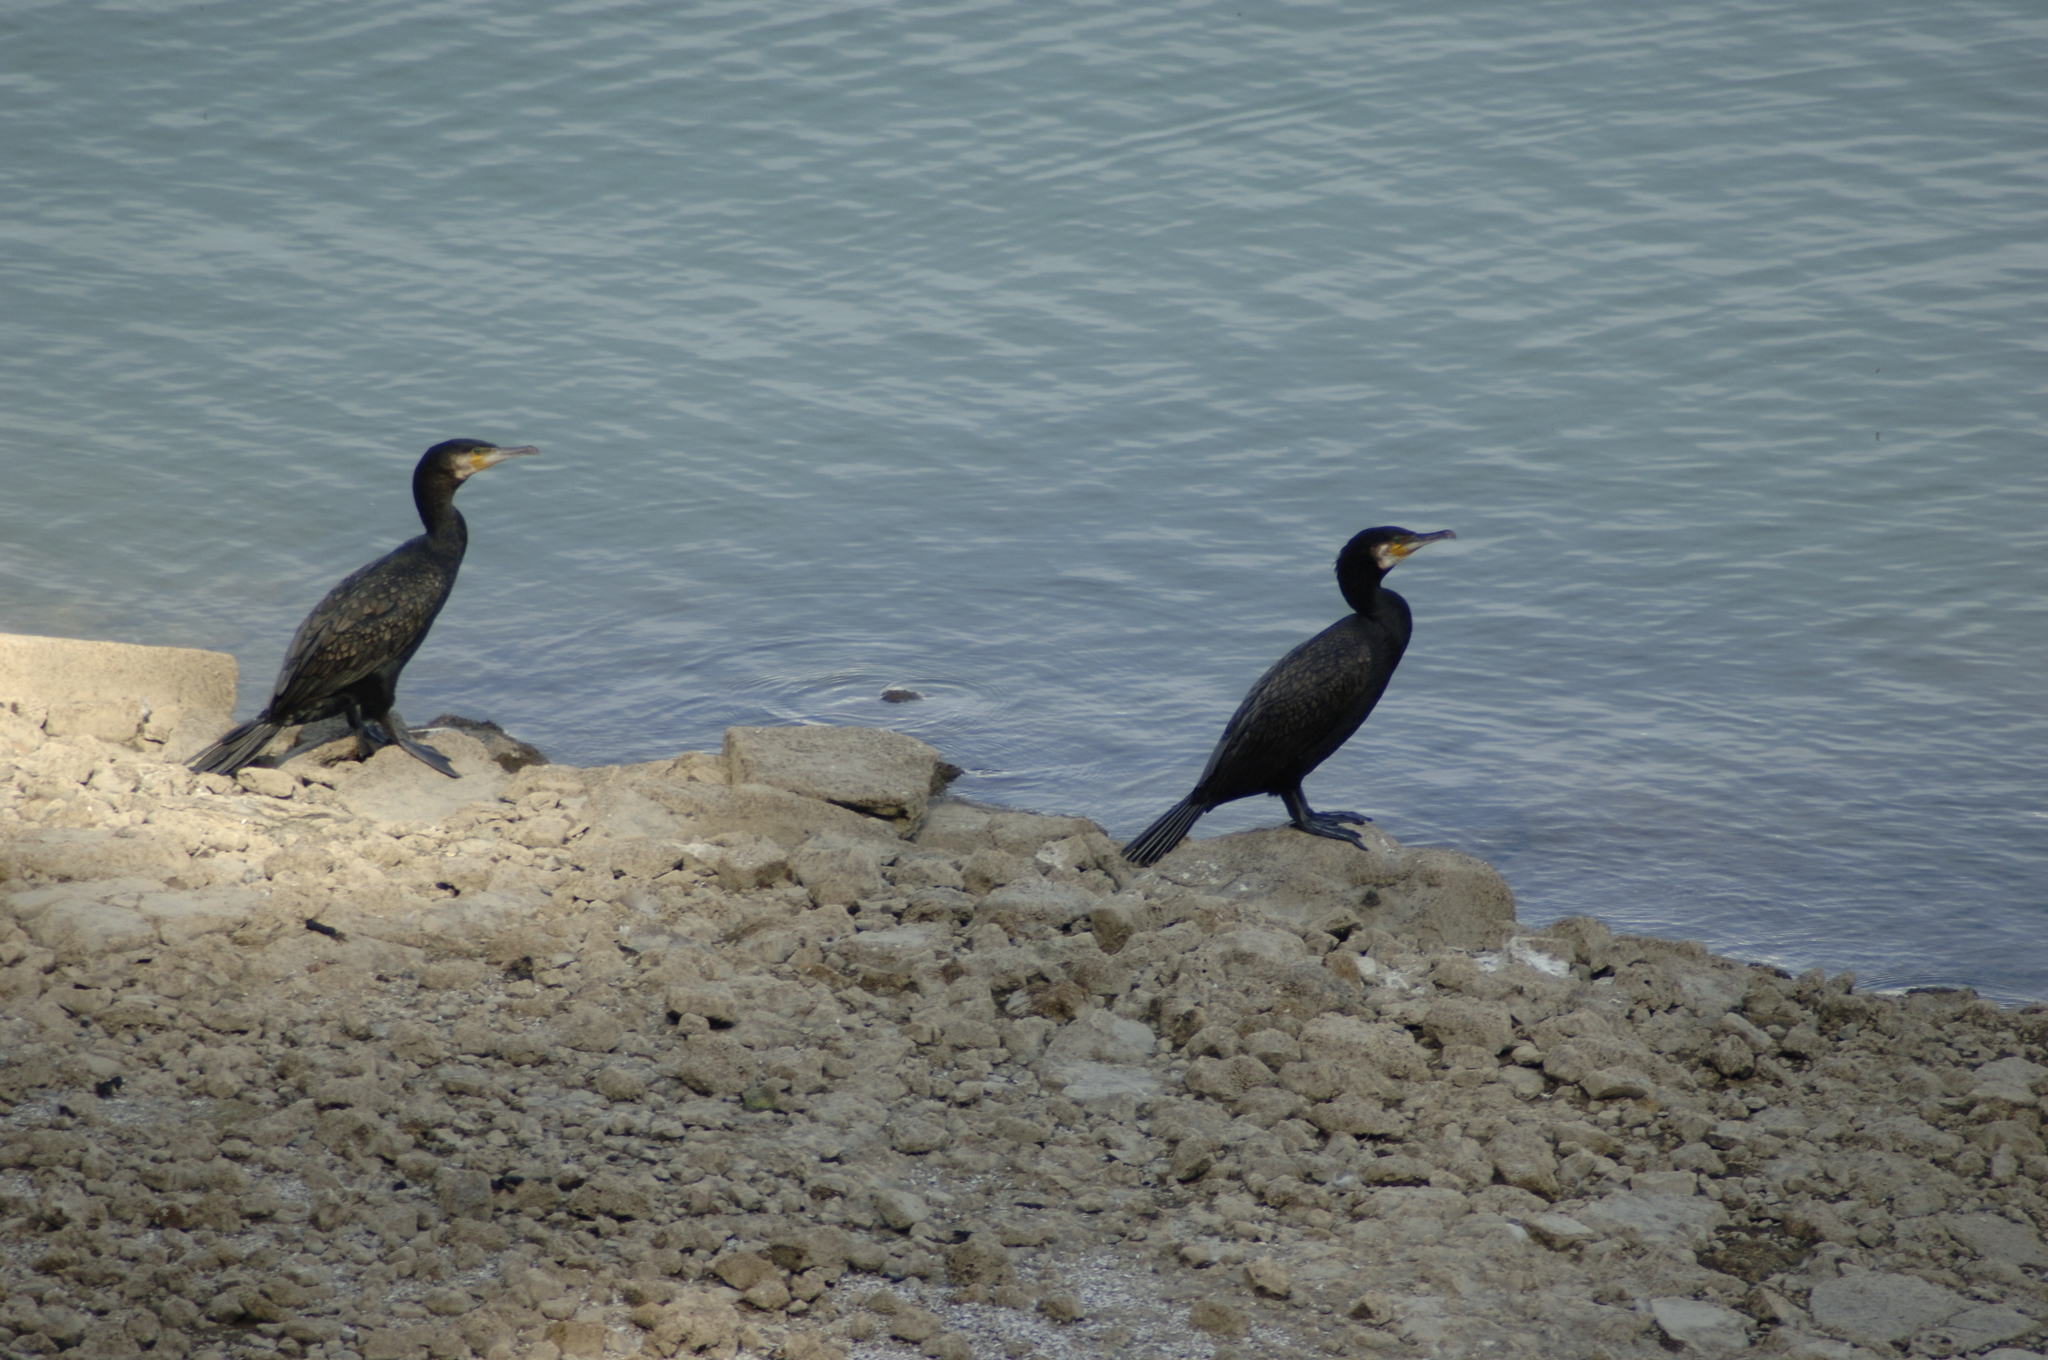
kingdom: Animalia
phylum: Chordata
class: Aves
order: Suliformes
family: Phalacrocoracidae
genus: Phalacrocorax
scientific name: Phalacrocorax carbo
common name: Great cormorant
